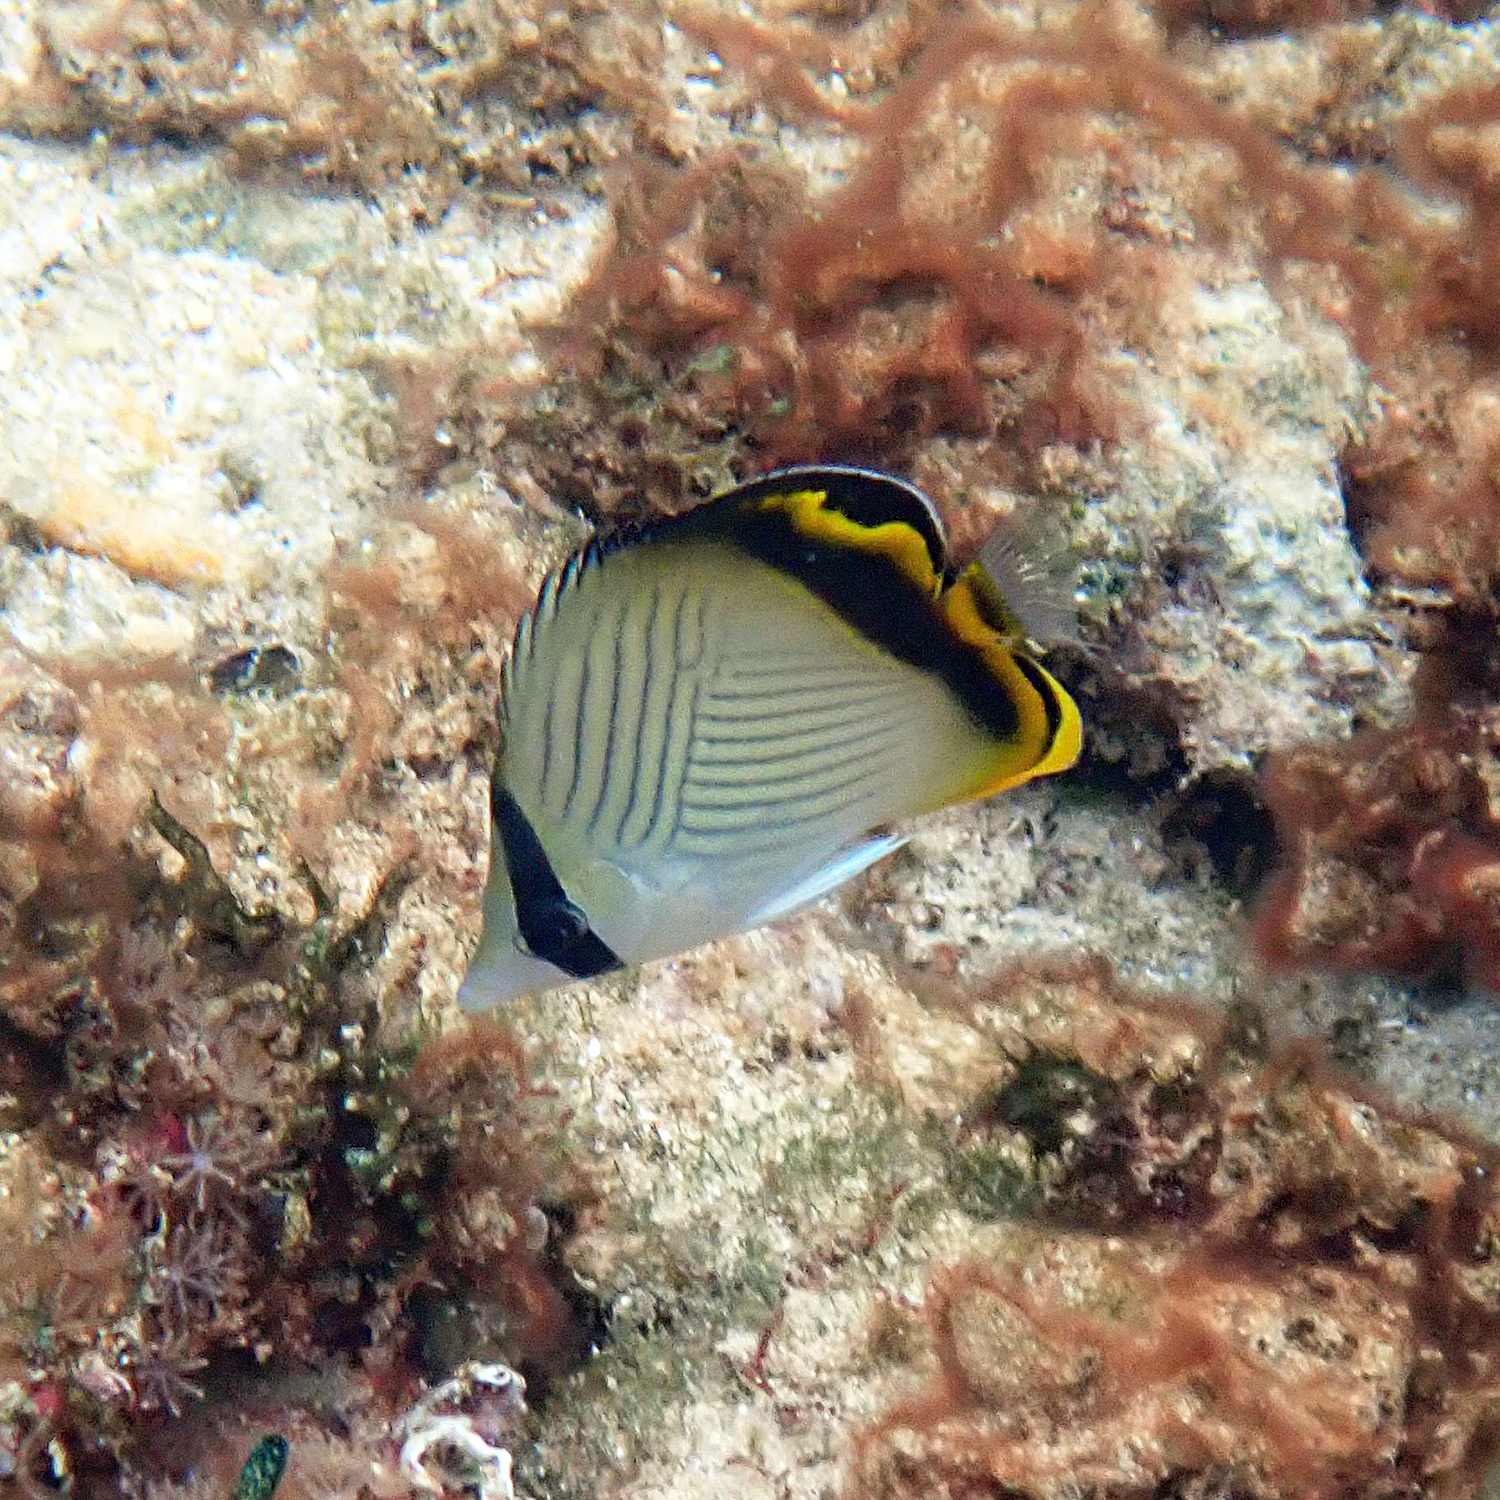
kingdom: Animalia
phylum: Chordata
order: Perciformes
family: Chaetodontidae
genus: Chaetodon
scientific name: Chaetodon vagabundus
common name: Vagabond butterflyfish
